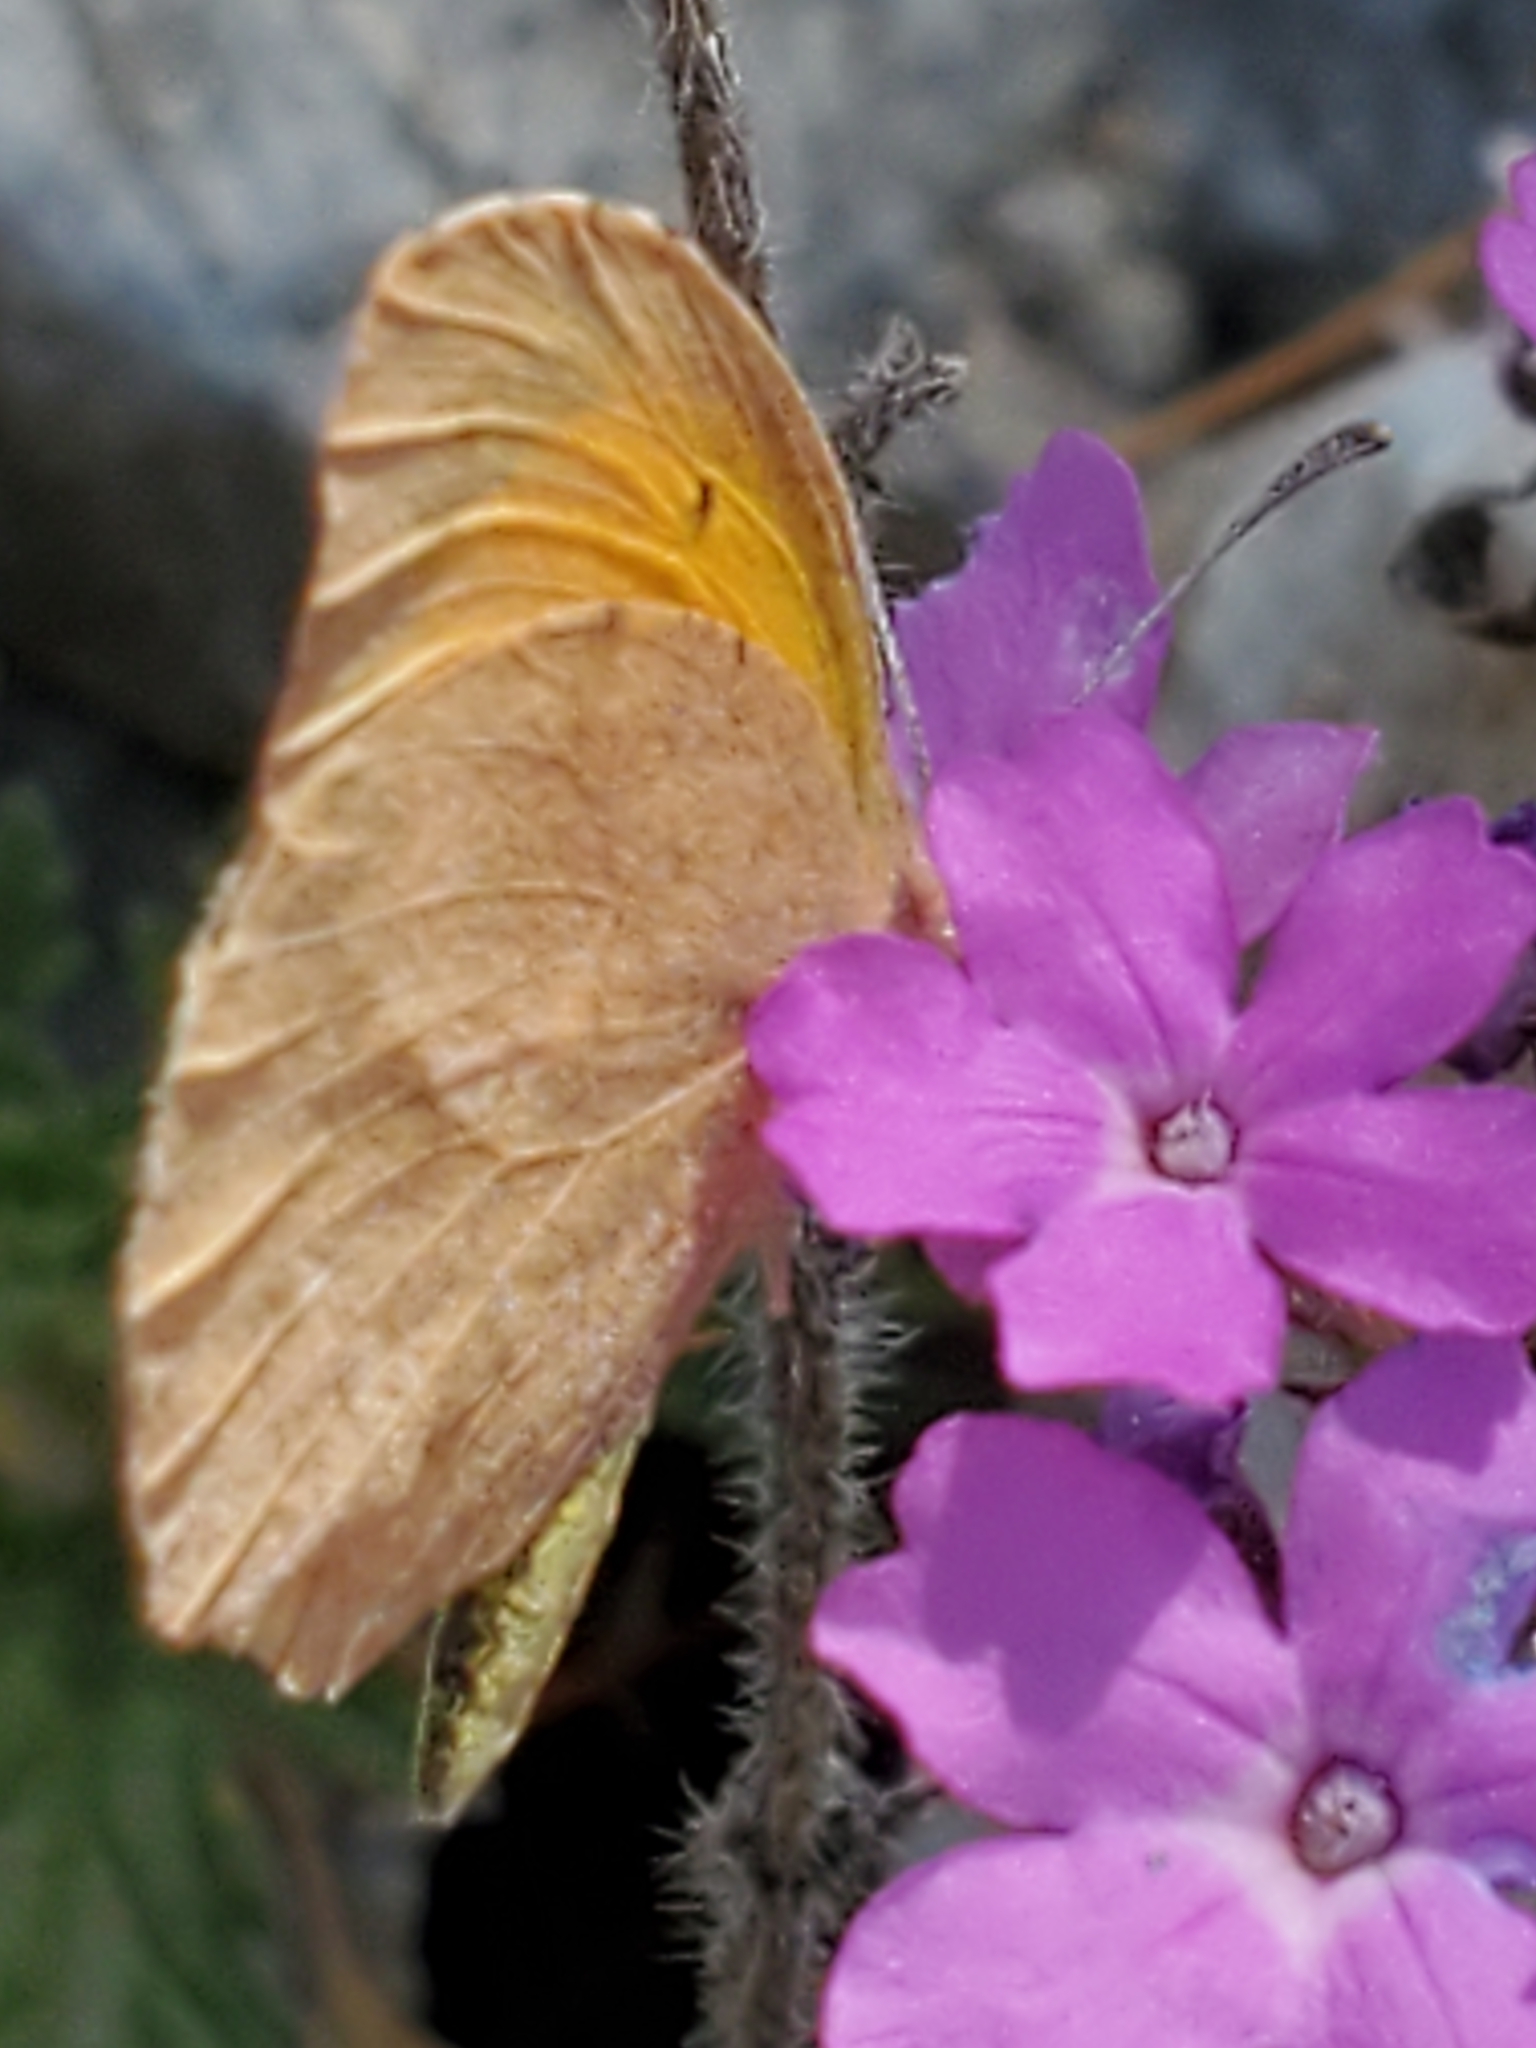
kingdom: Animalia
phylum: Arthropoda
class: Insecta
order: Lepidoptera
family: Pieridae
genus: Abaeis
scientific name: Abaeis nicippe
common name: Sleepy orange
